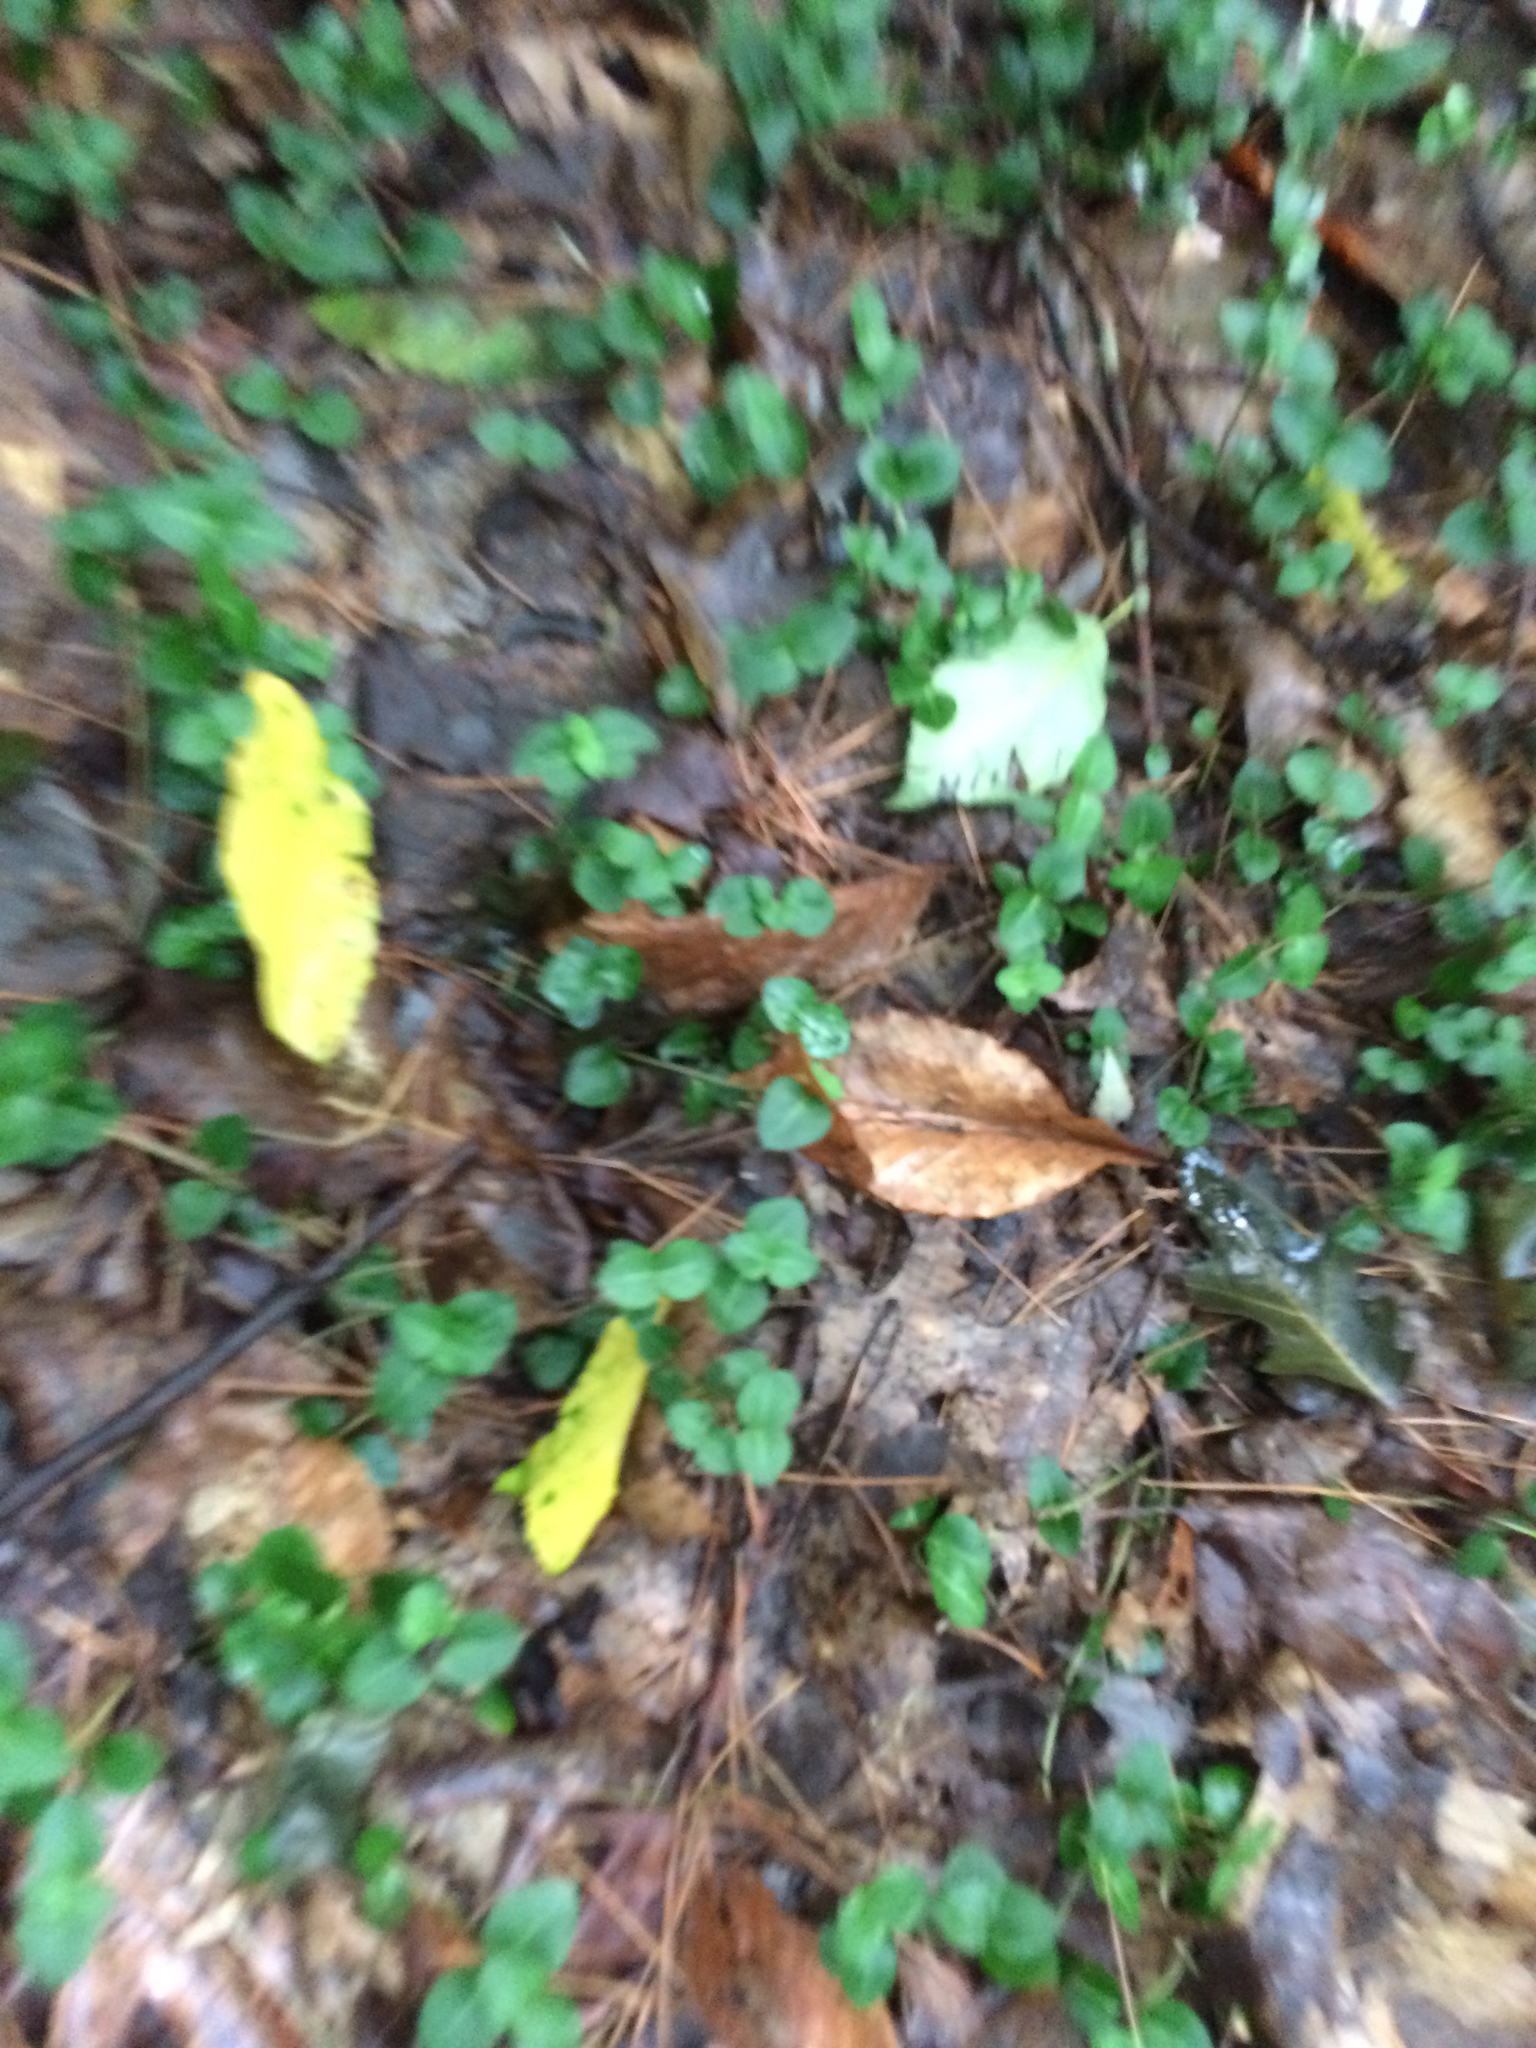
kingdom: Plantae
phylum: Tracheophyta
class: Magnoliopsida
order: Gentianales
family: Rubiaceae
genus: Mitchella
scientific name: Mitchella repens
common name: Partridge-berry
